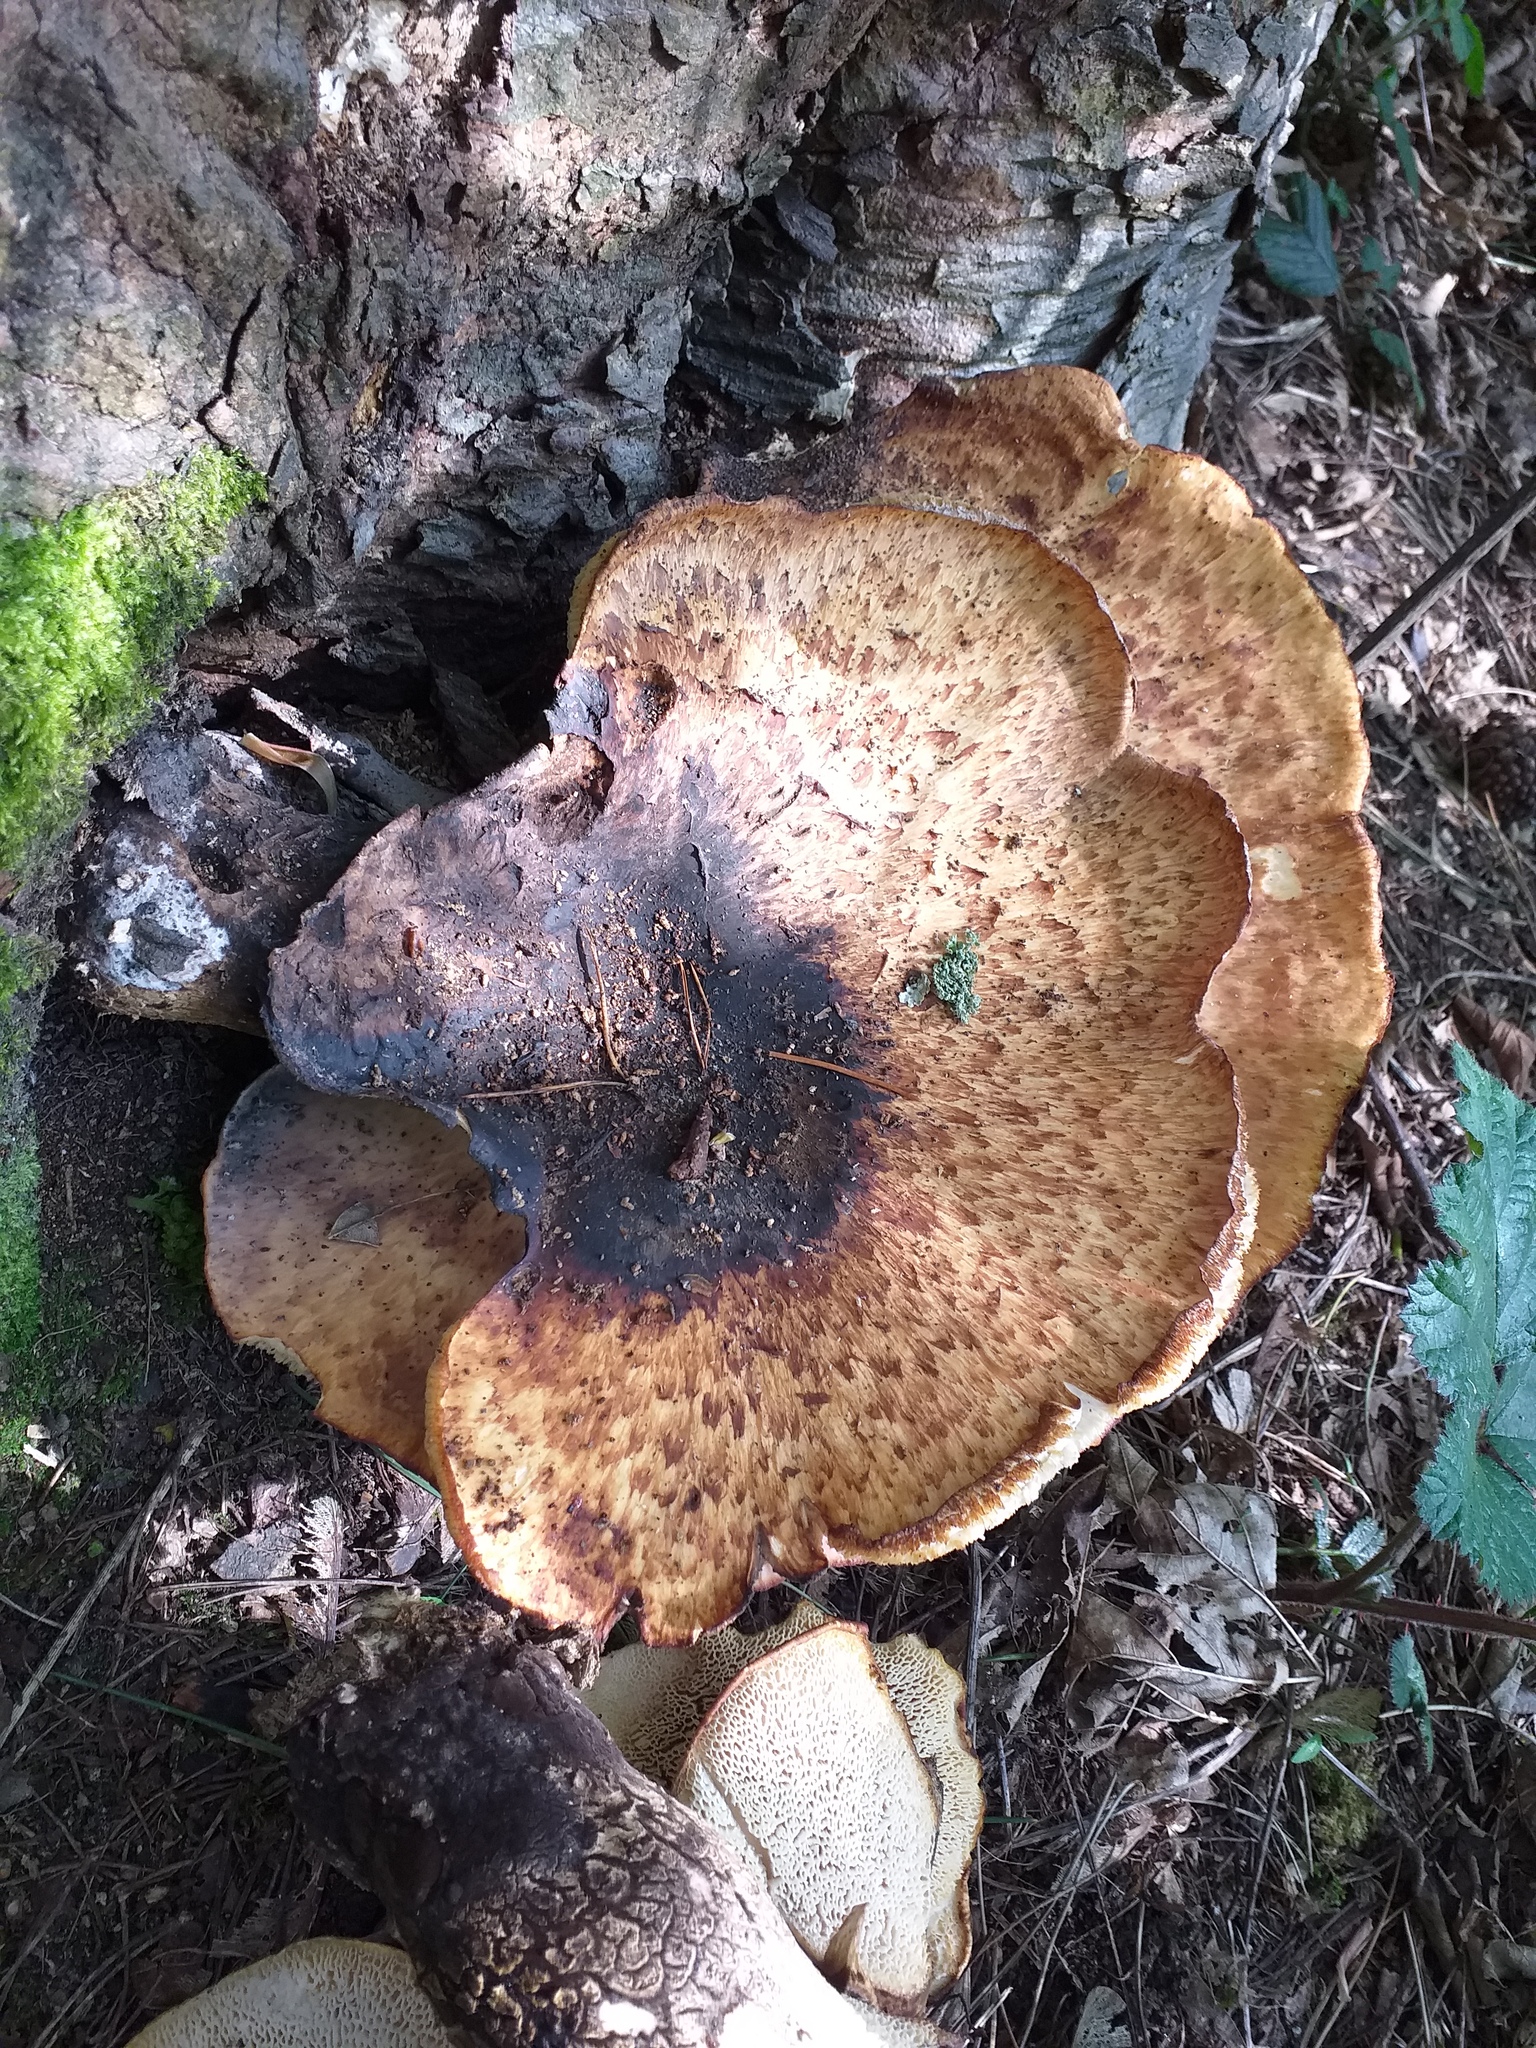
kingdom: Fungi
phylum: Basidiomycota
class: Agaricomycetes
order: Polyporales
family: Polyporaceae
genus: Cerioporus
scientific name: Cerioporus squamosus
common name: Dryad's saddle
